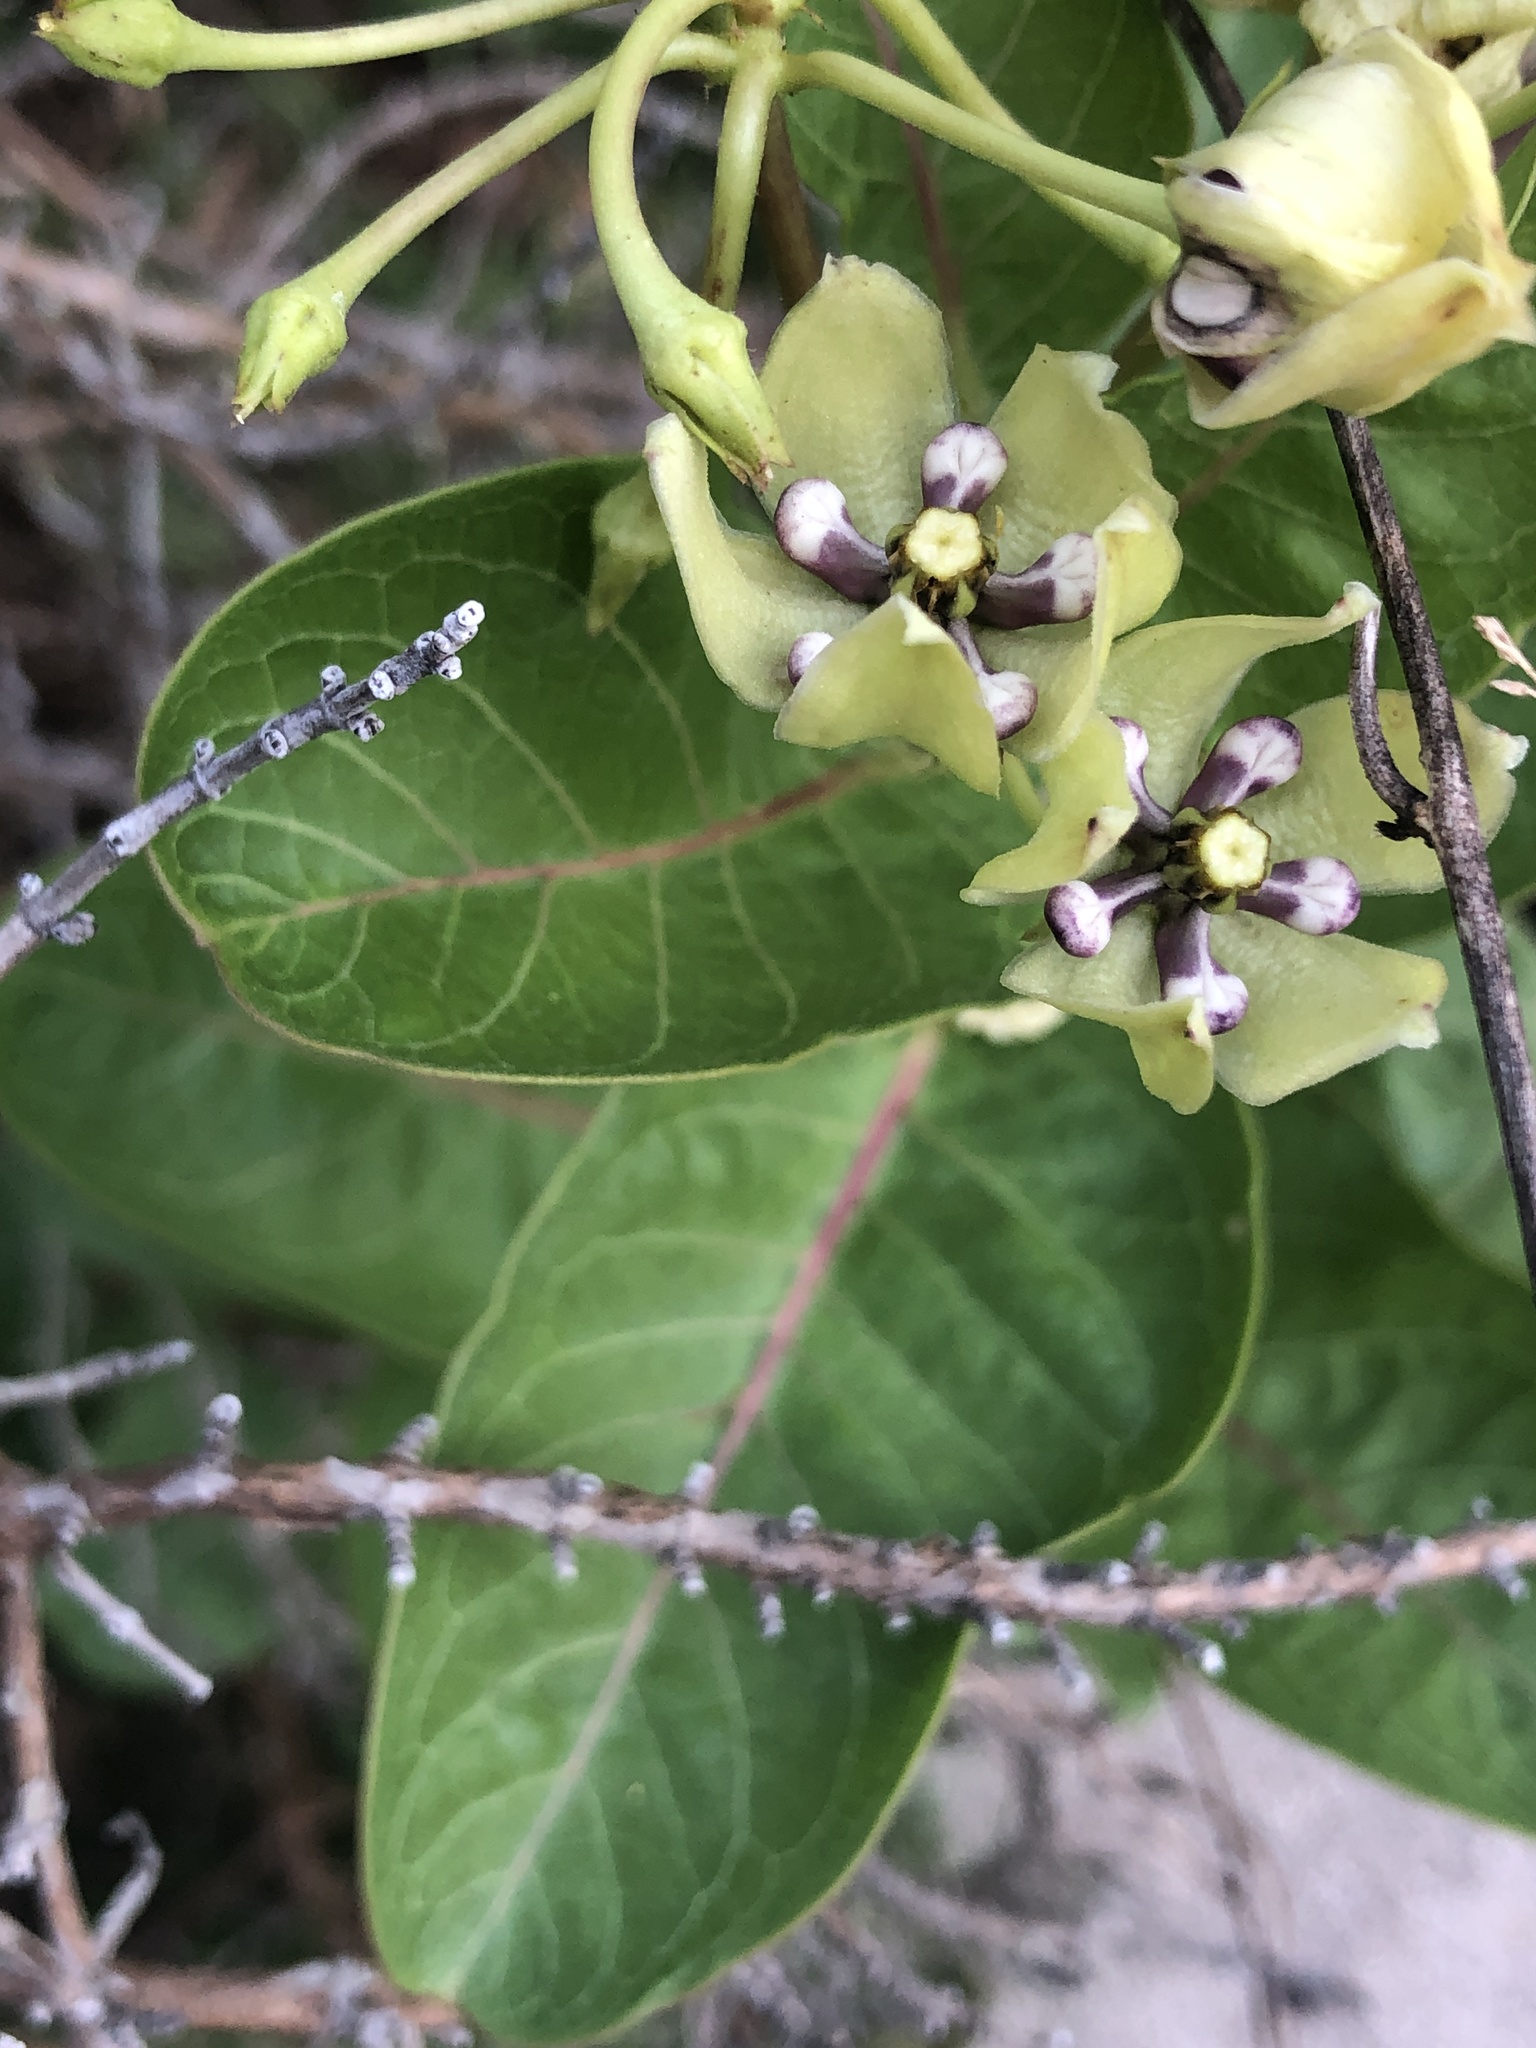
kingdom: Plantae
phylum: Tracheophyta
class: Magnoliopsida
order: Gentianales
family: Apocynaceae
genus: Asclepias
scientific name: Asclepias viridis
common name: Antelope-horns
